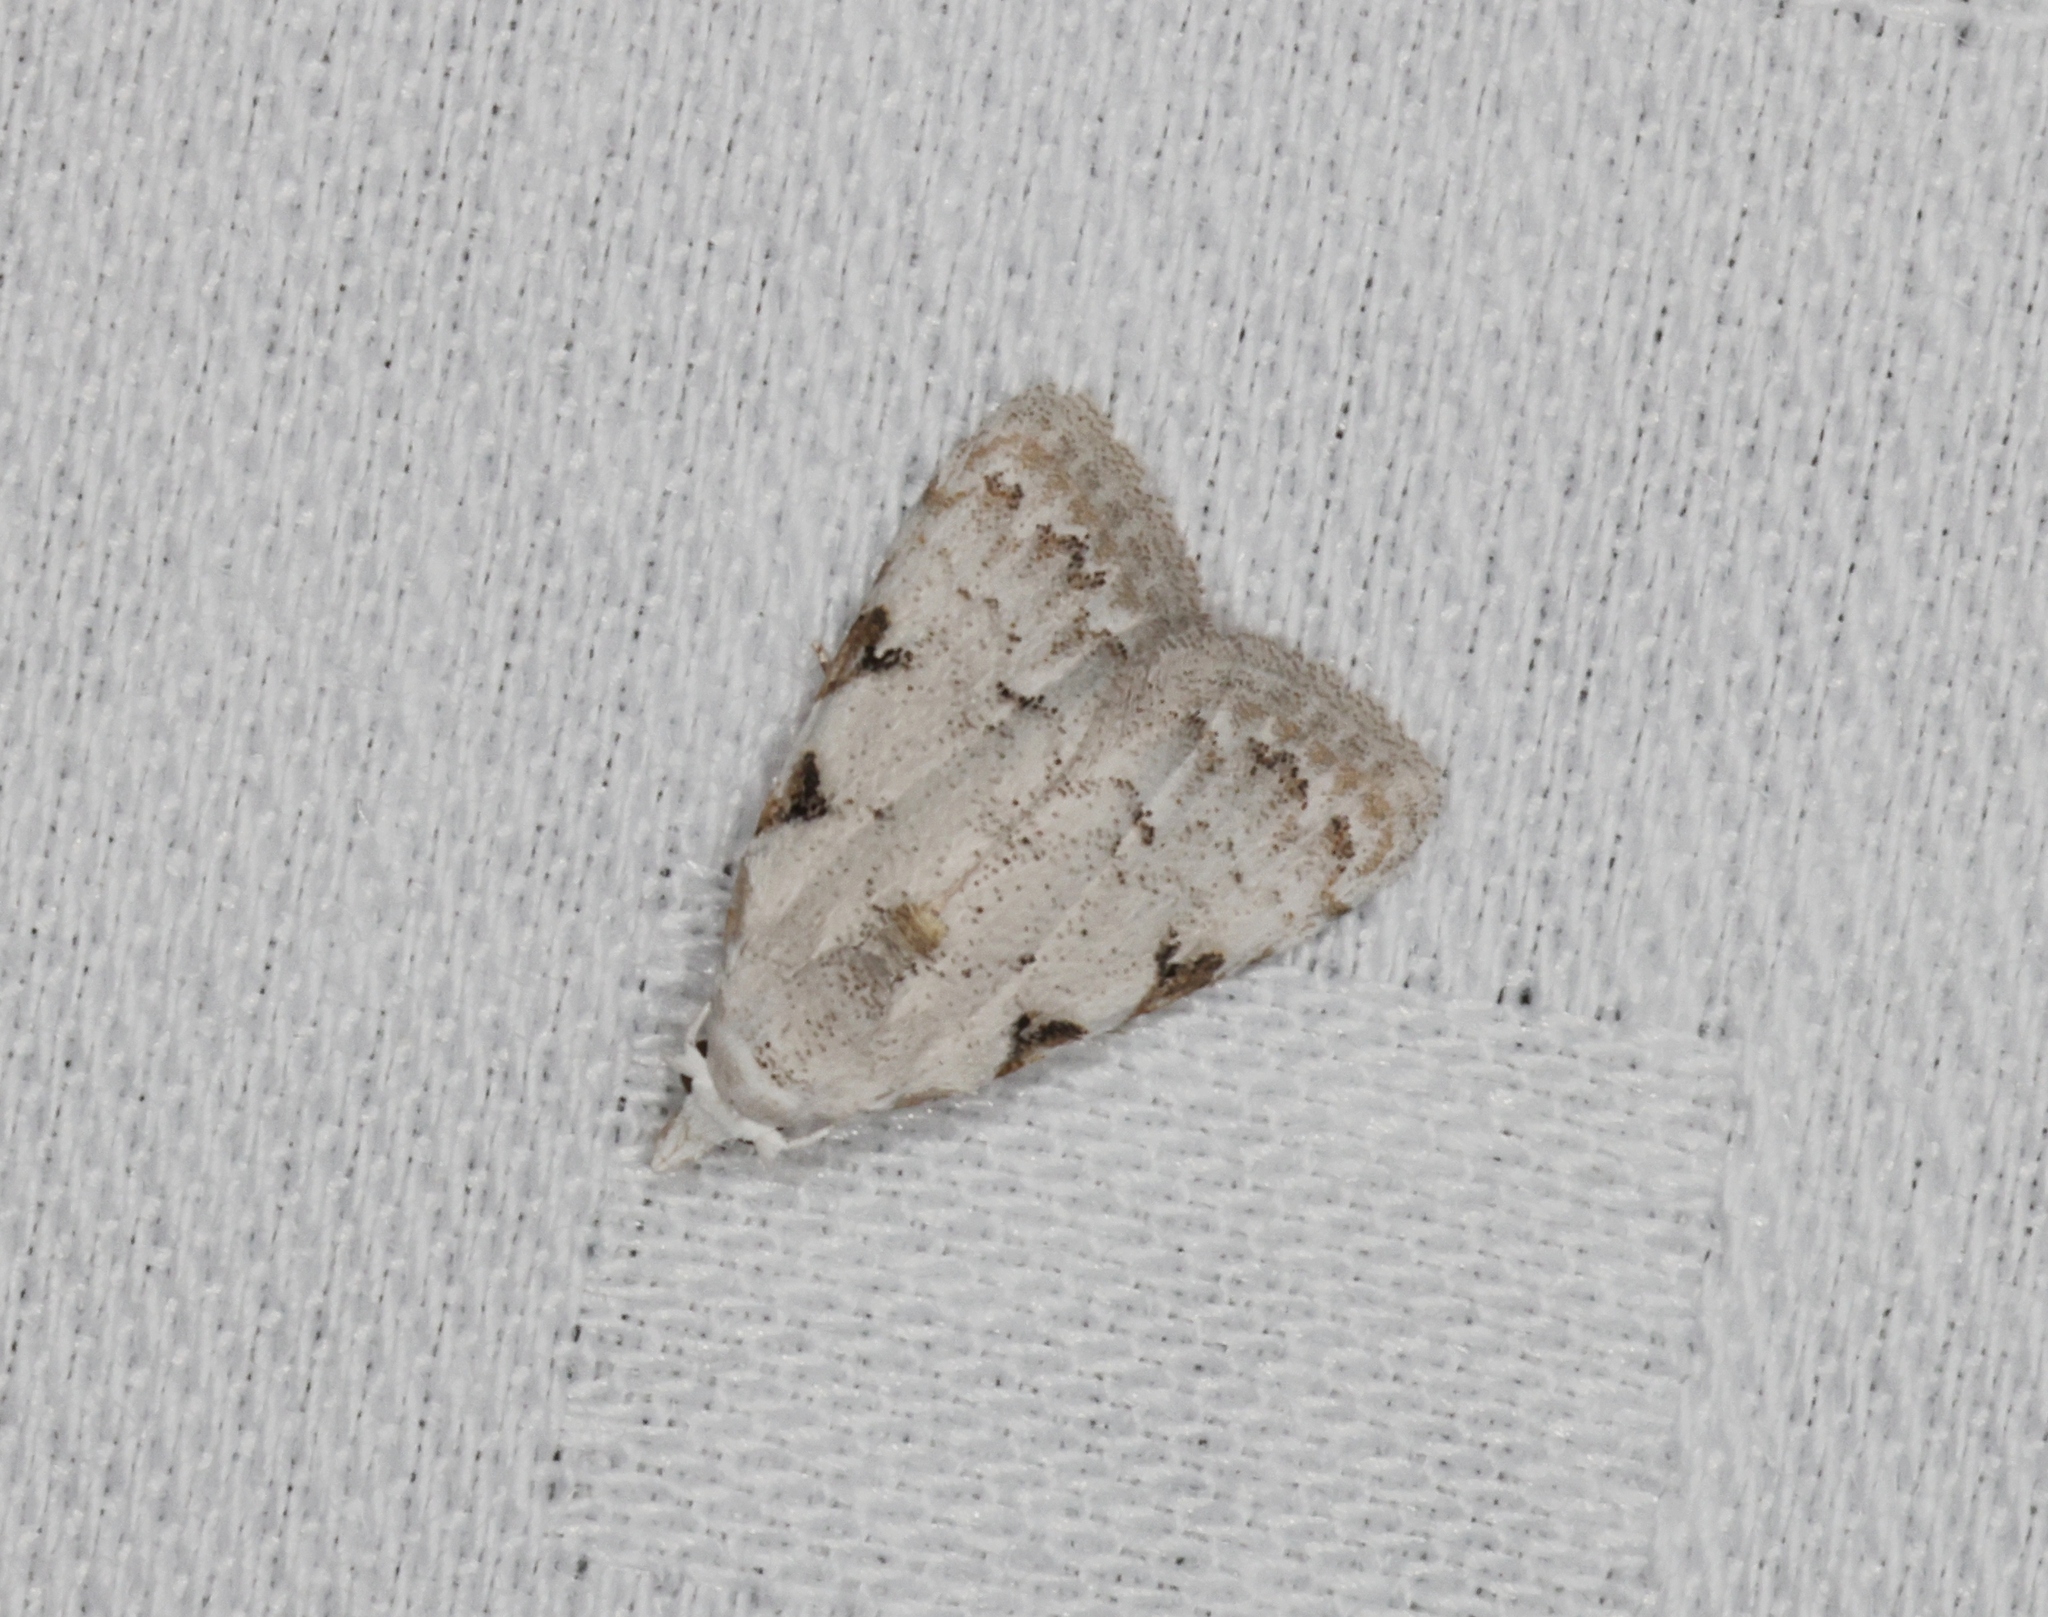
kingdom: Animalia
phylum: Arthropoda
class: Insecta
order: Lepidoptera
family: Nolidae
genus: Nola
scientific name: Nola pascua
